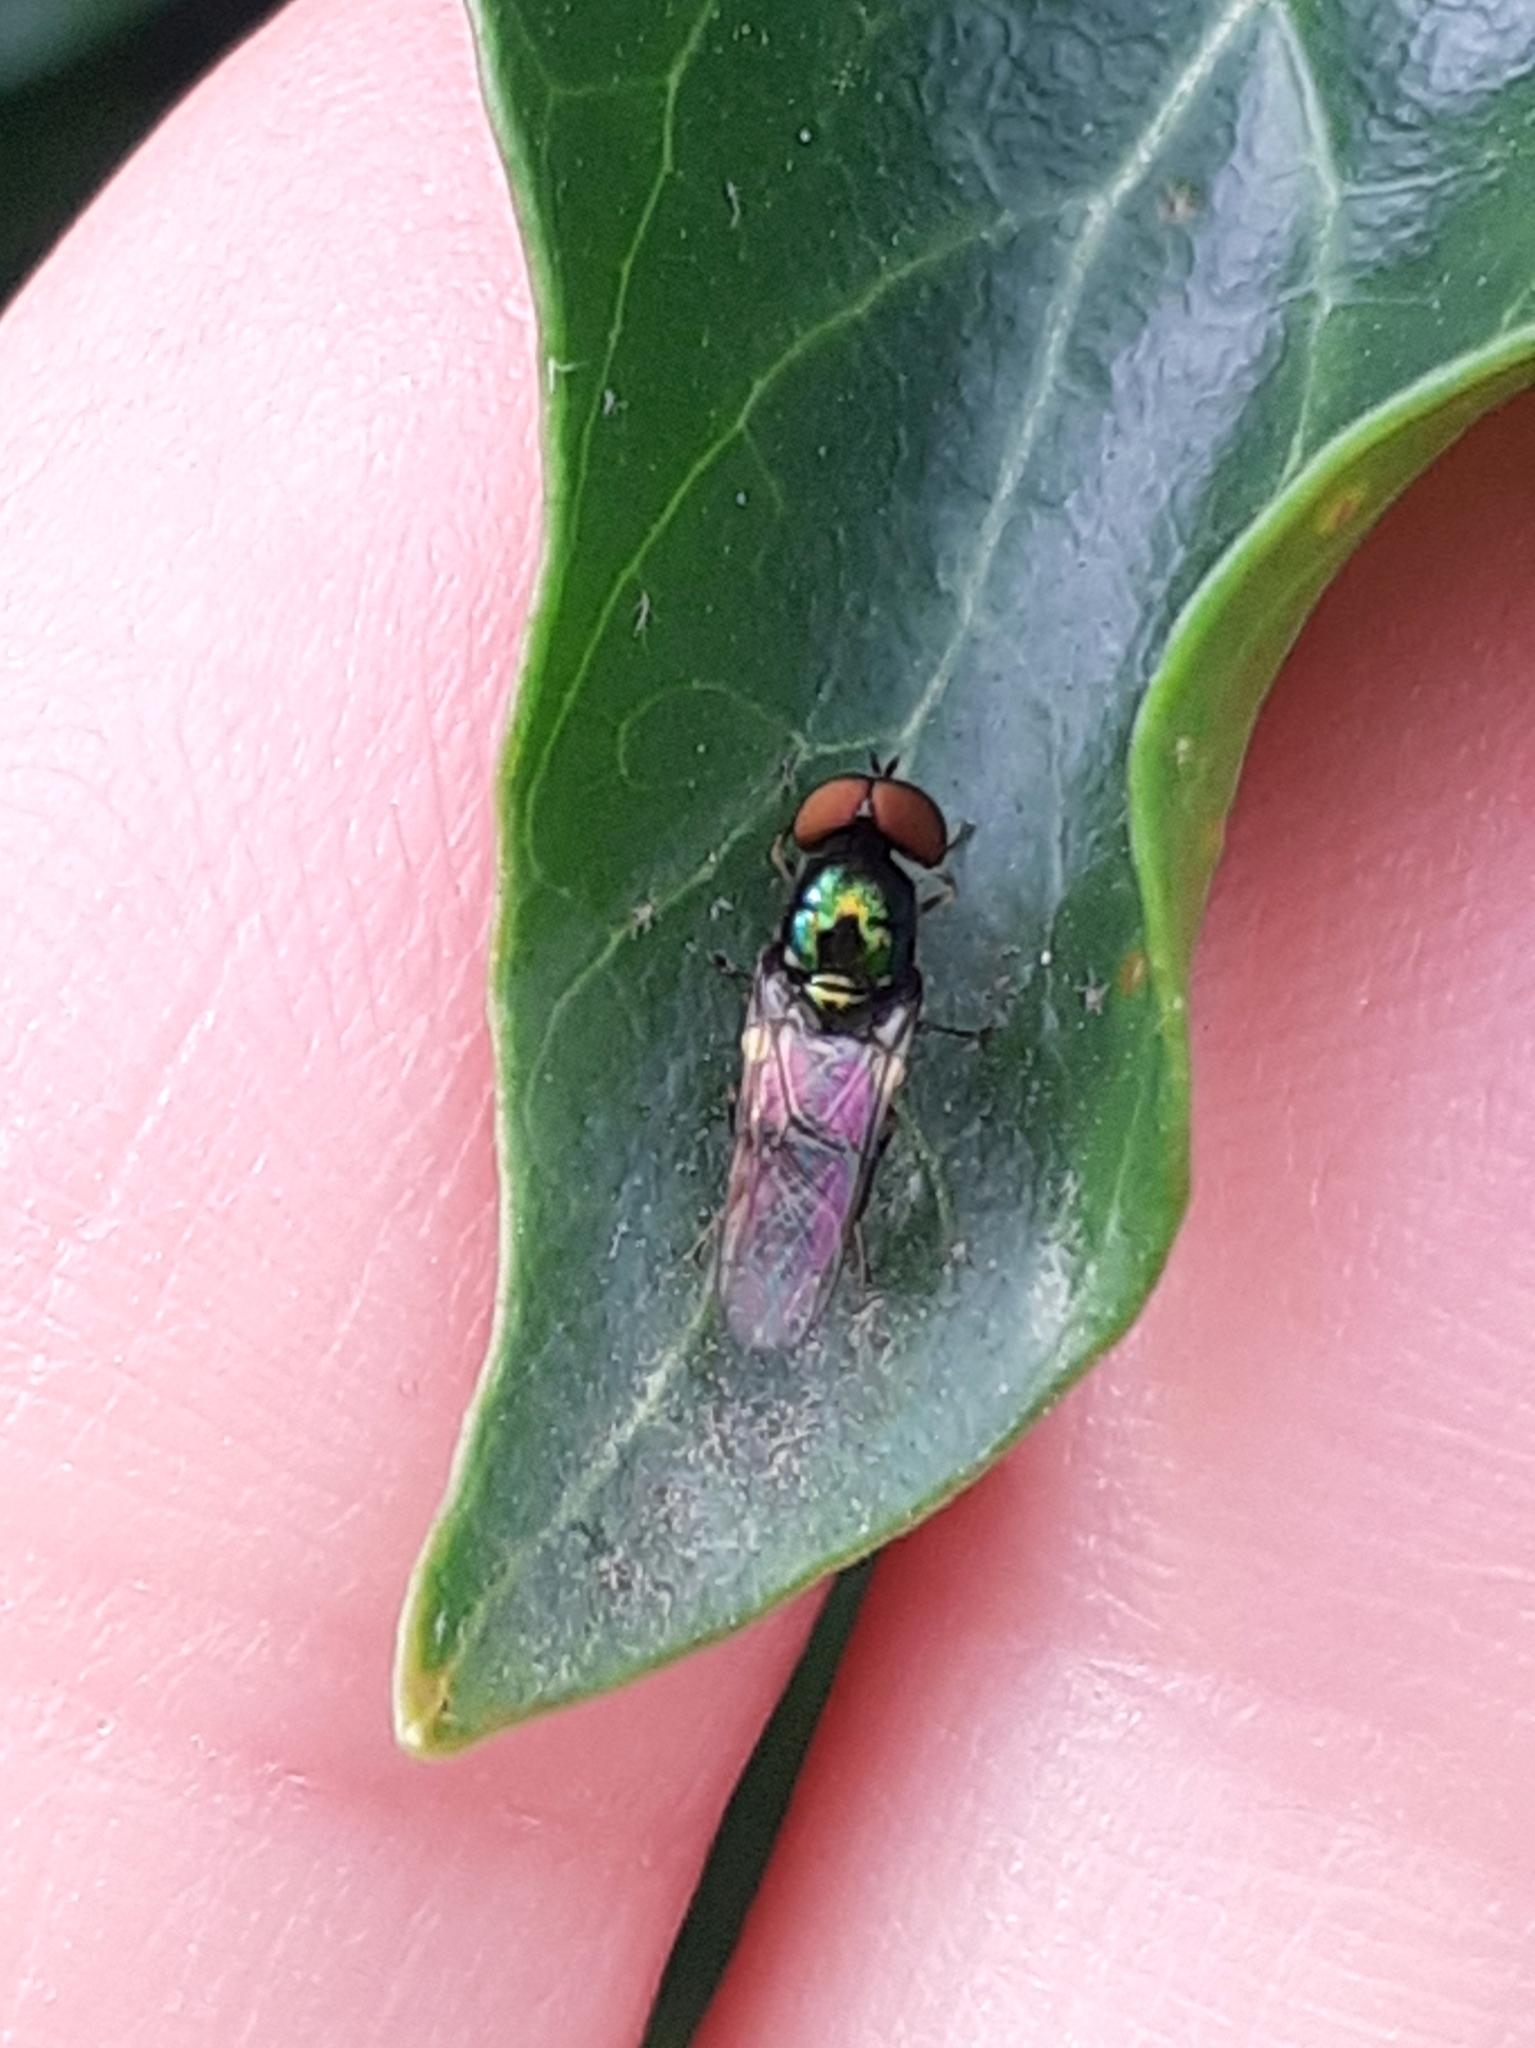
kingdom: Animalia
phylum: Arthropoda
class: Insecta
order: Diptera
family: Stratiomyidae
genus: Microchrysa
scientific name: Microchrysa polita
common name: Black-horned gem
